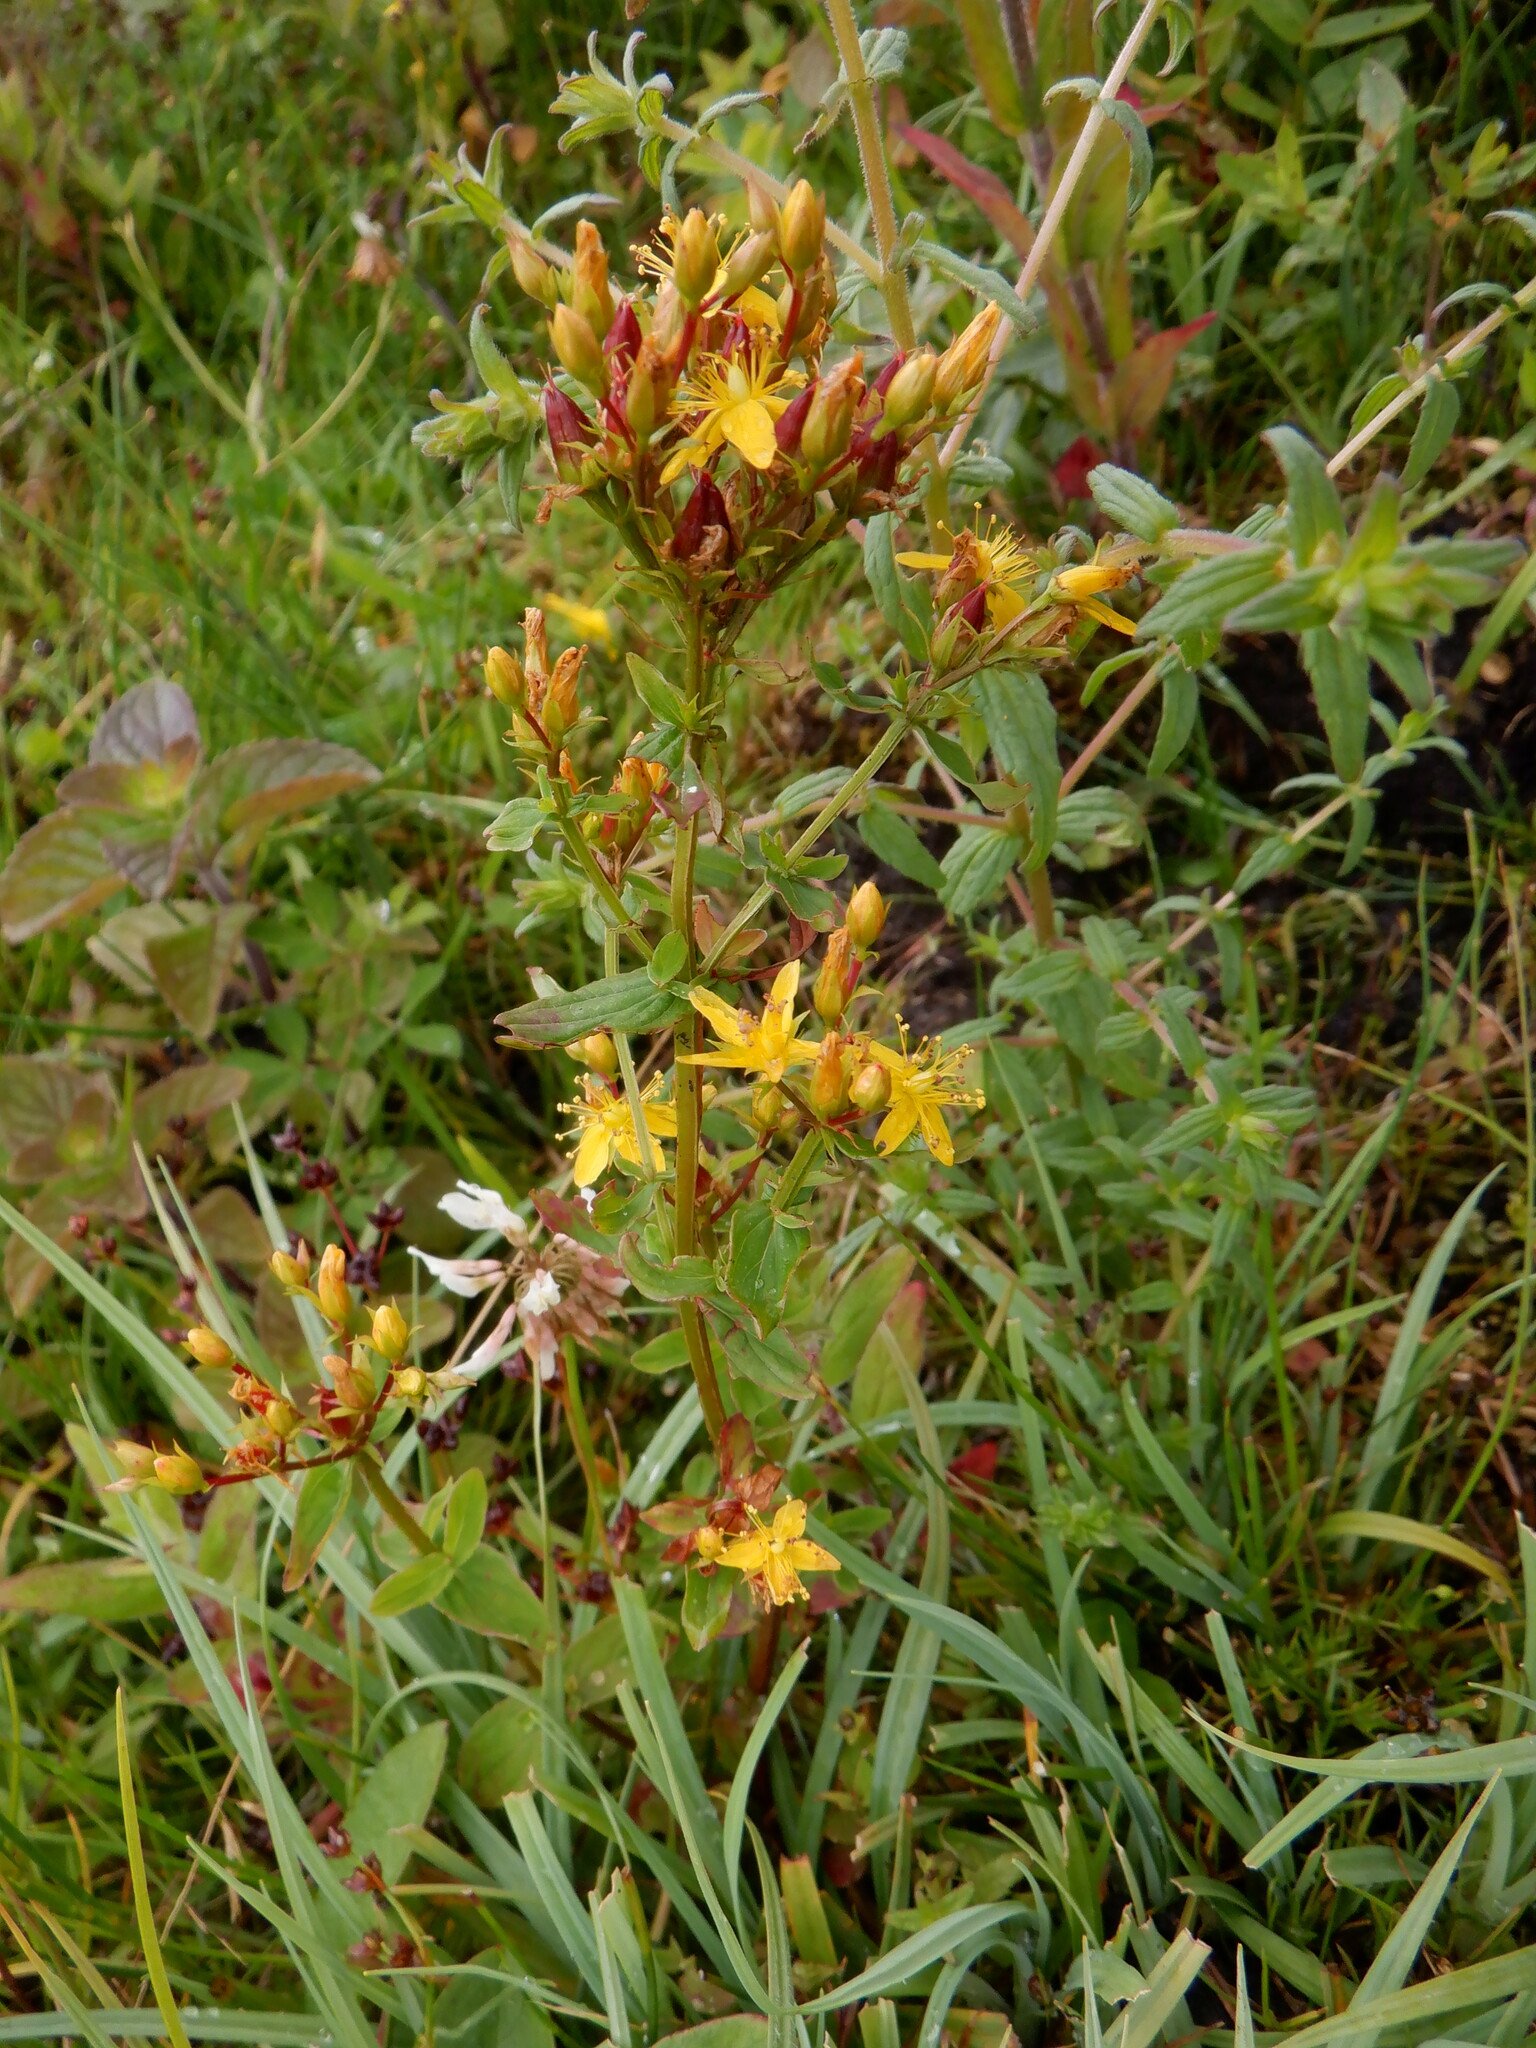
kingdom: Plantae
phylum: Tracheophyta
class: Magnoliopsida
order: Malpighiales
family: Hypericaceae
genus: Hypericum
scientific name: Hypericum tetrapterum
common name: Square-stalked st. john's-wort
